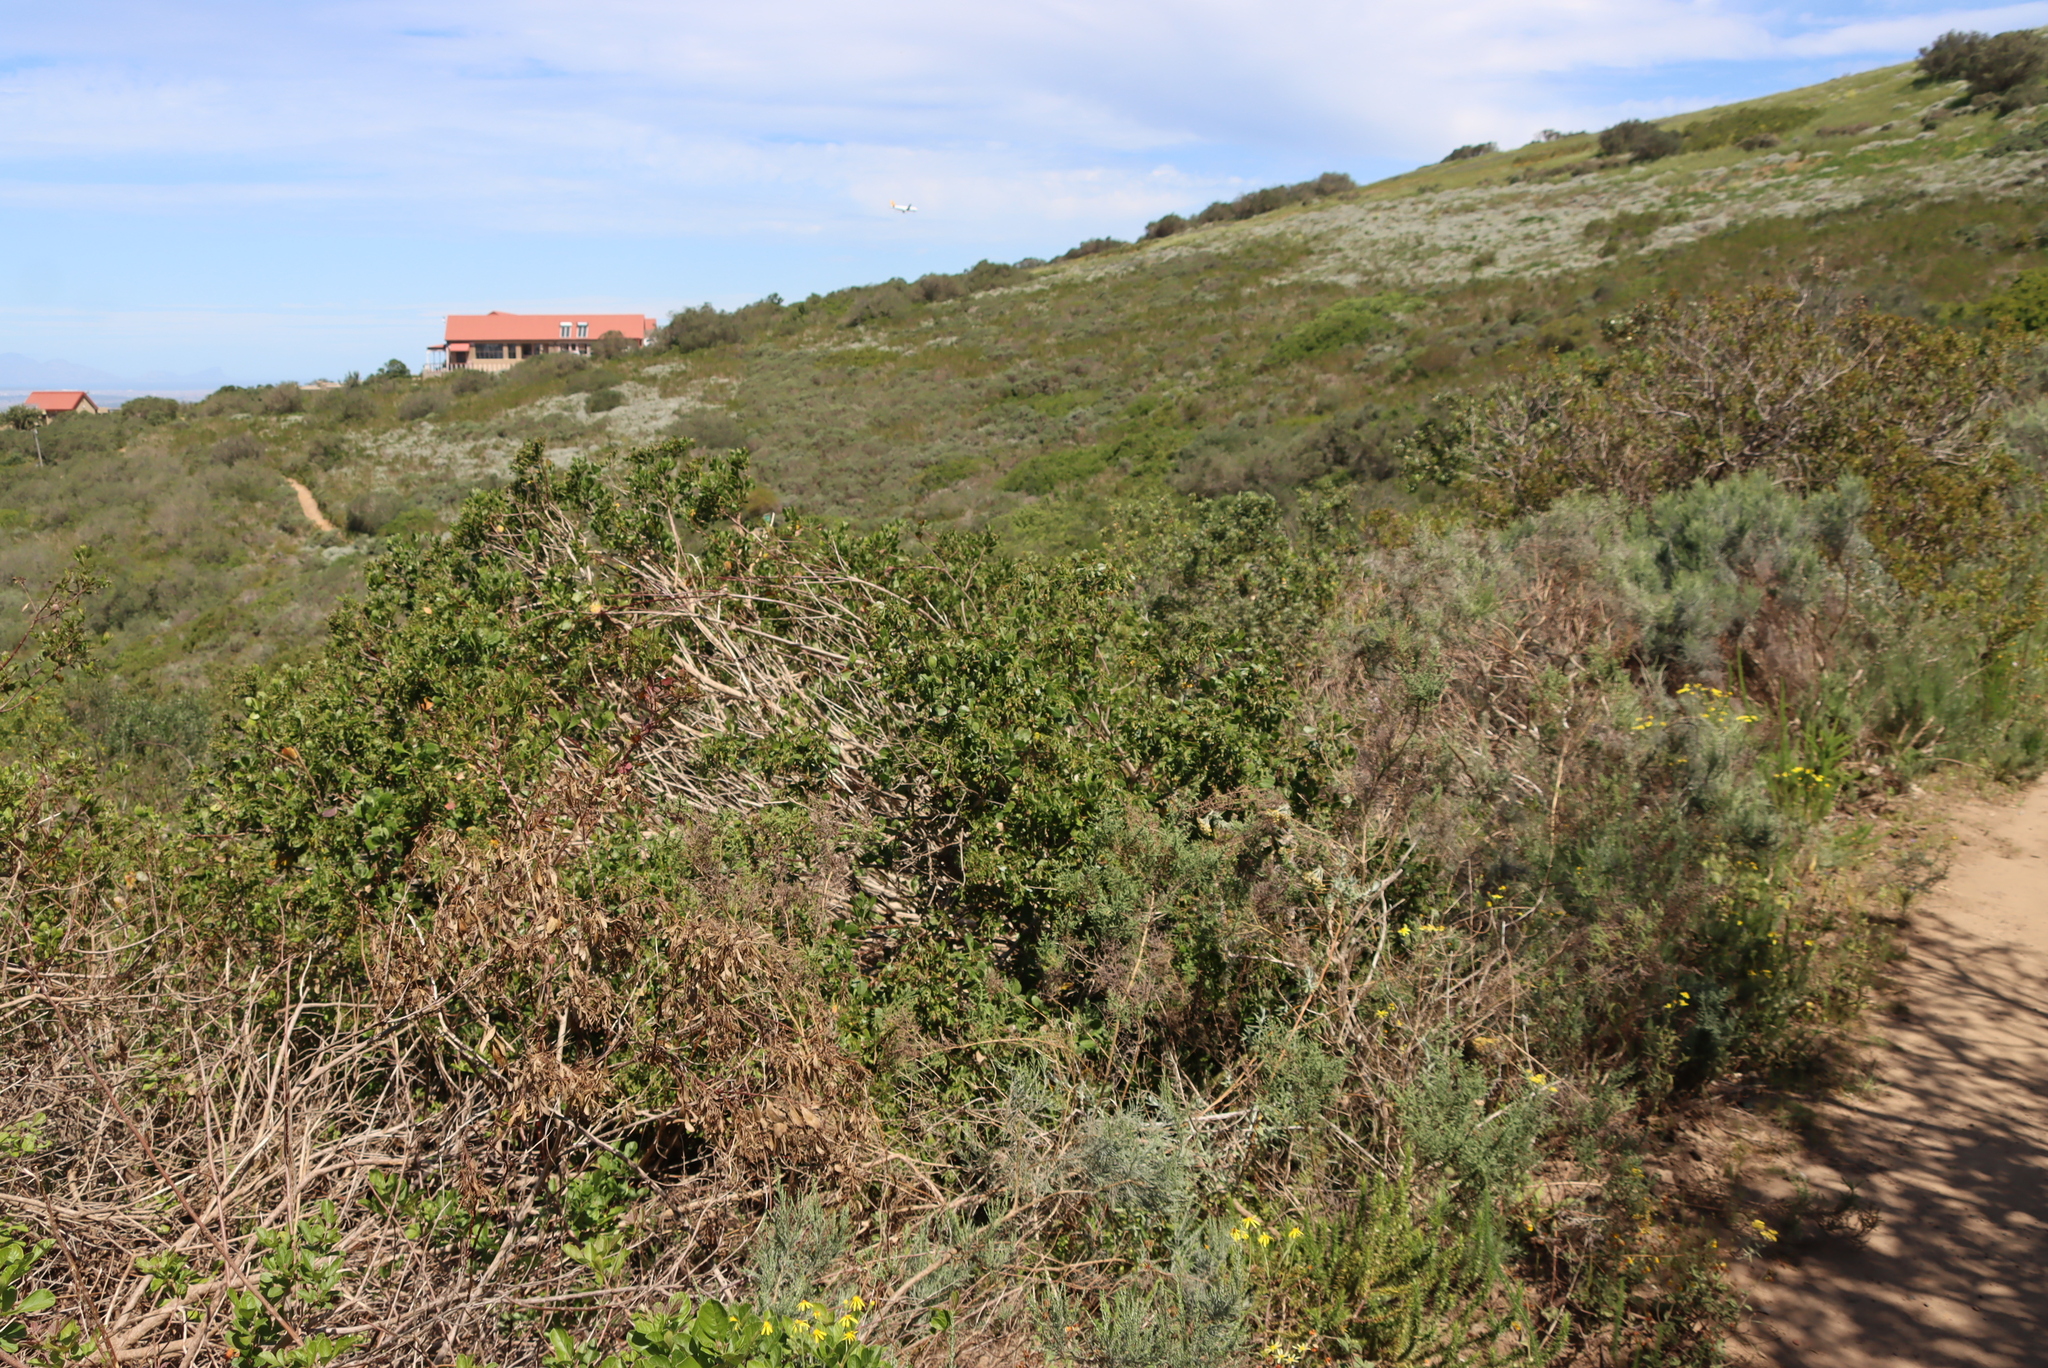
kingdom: Plantae
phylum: Tracheophyta
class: Magnoliopsida
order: Asterales
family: Asteraceae
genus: Osteospermum
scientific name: Osteospermum moniliferum
